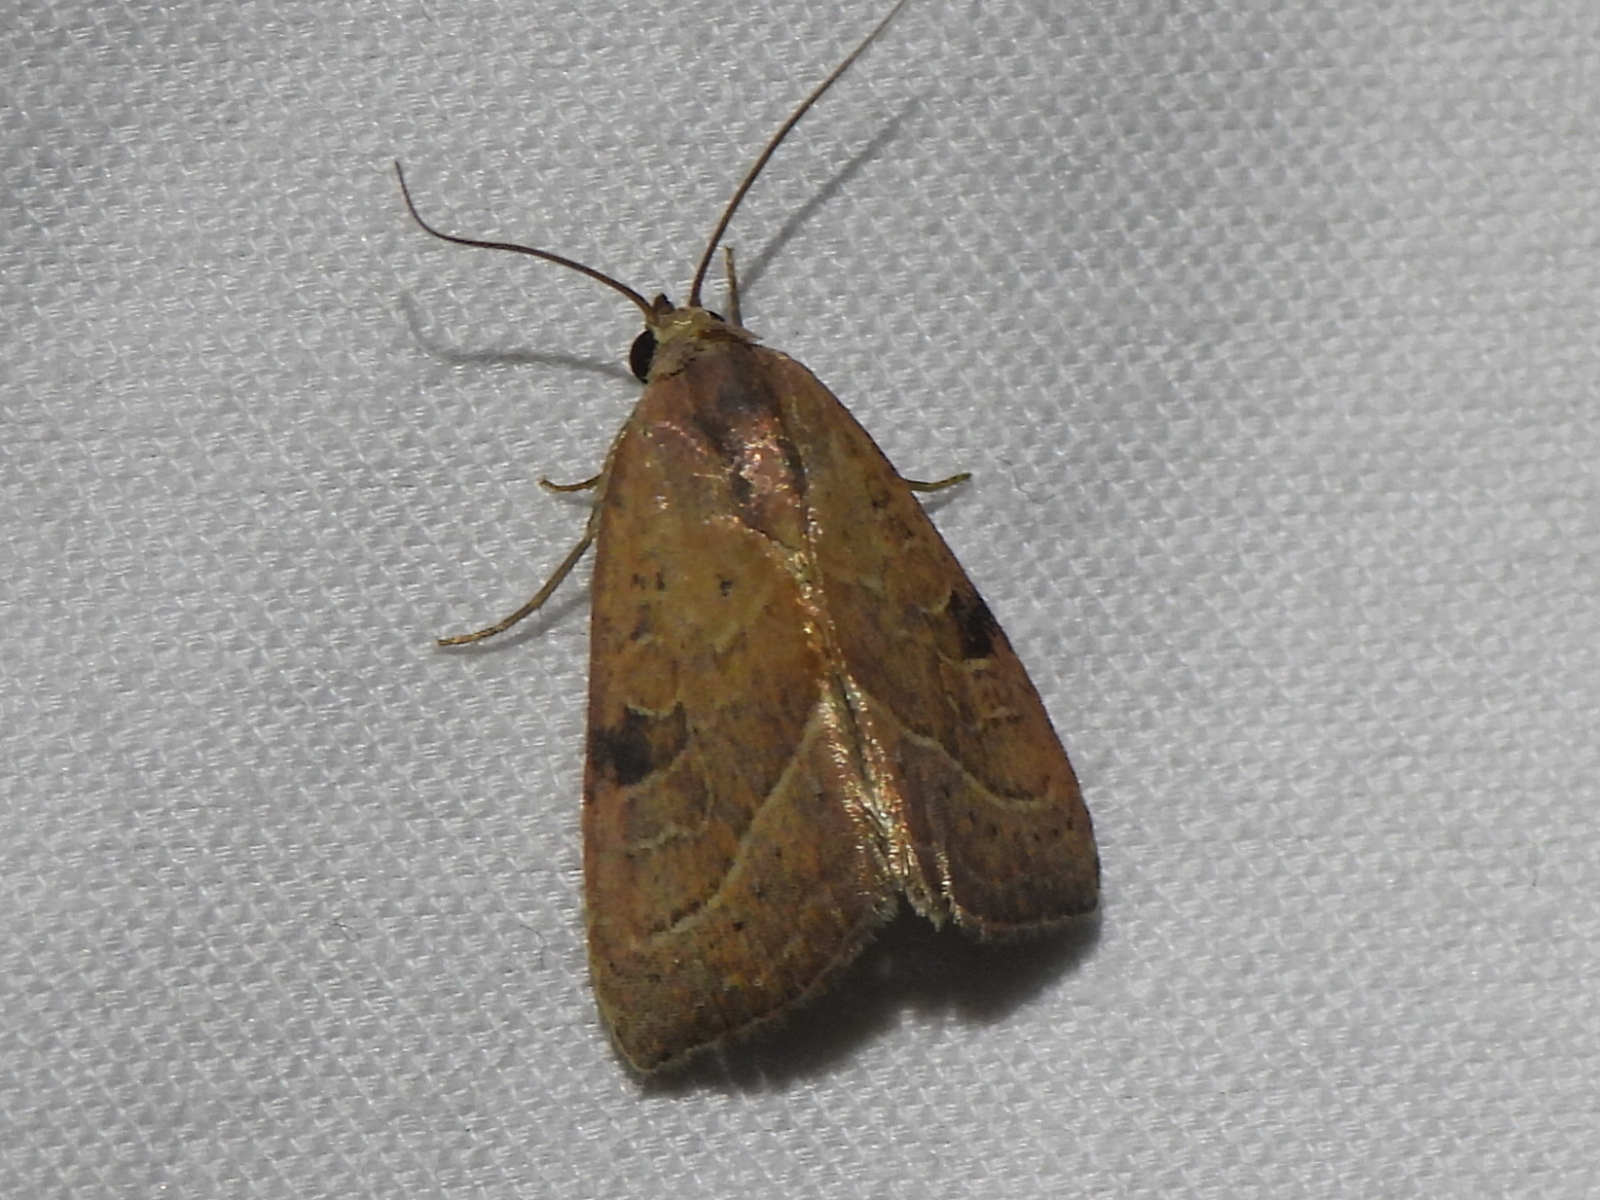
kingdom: Animalia
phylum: Arthropoda
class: Insecta
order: Lepidoptera
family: Noctuidae
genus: Galgula
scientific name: Galgula partita
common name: Wedgeling
